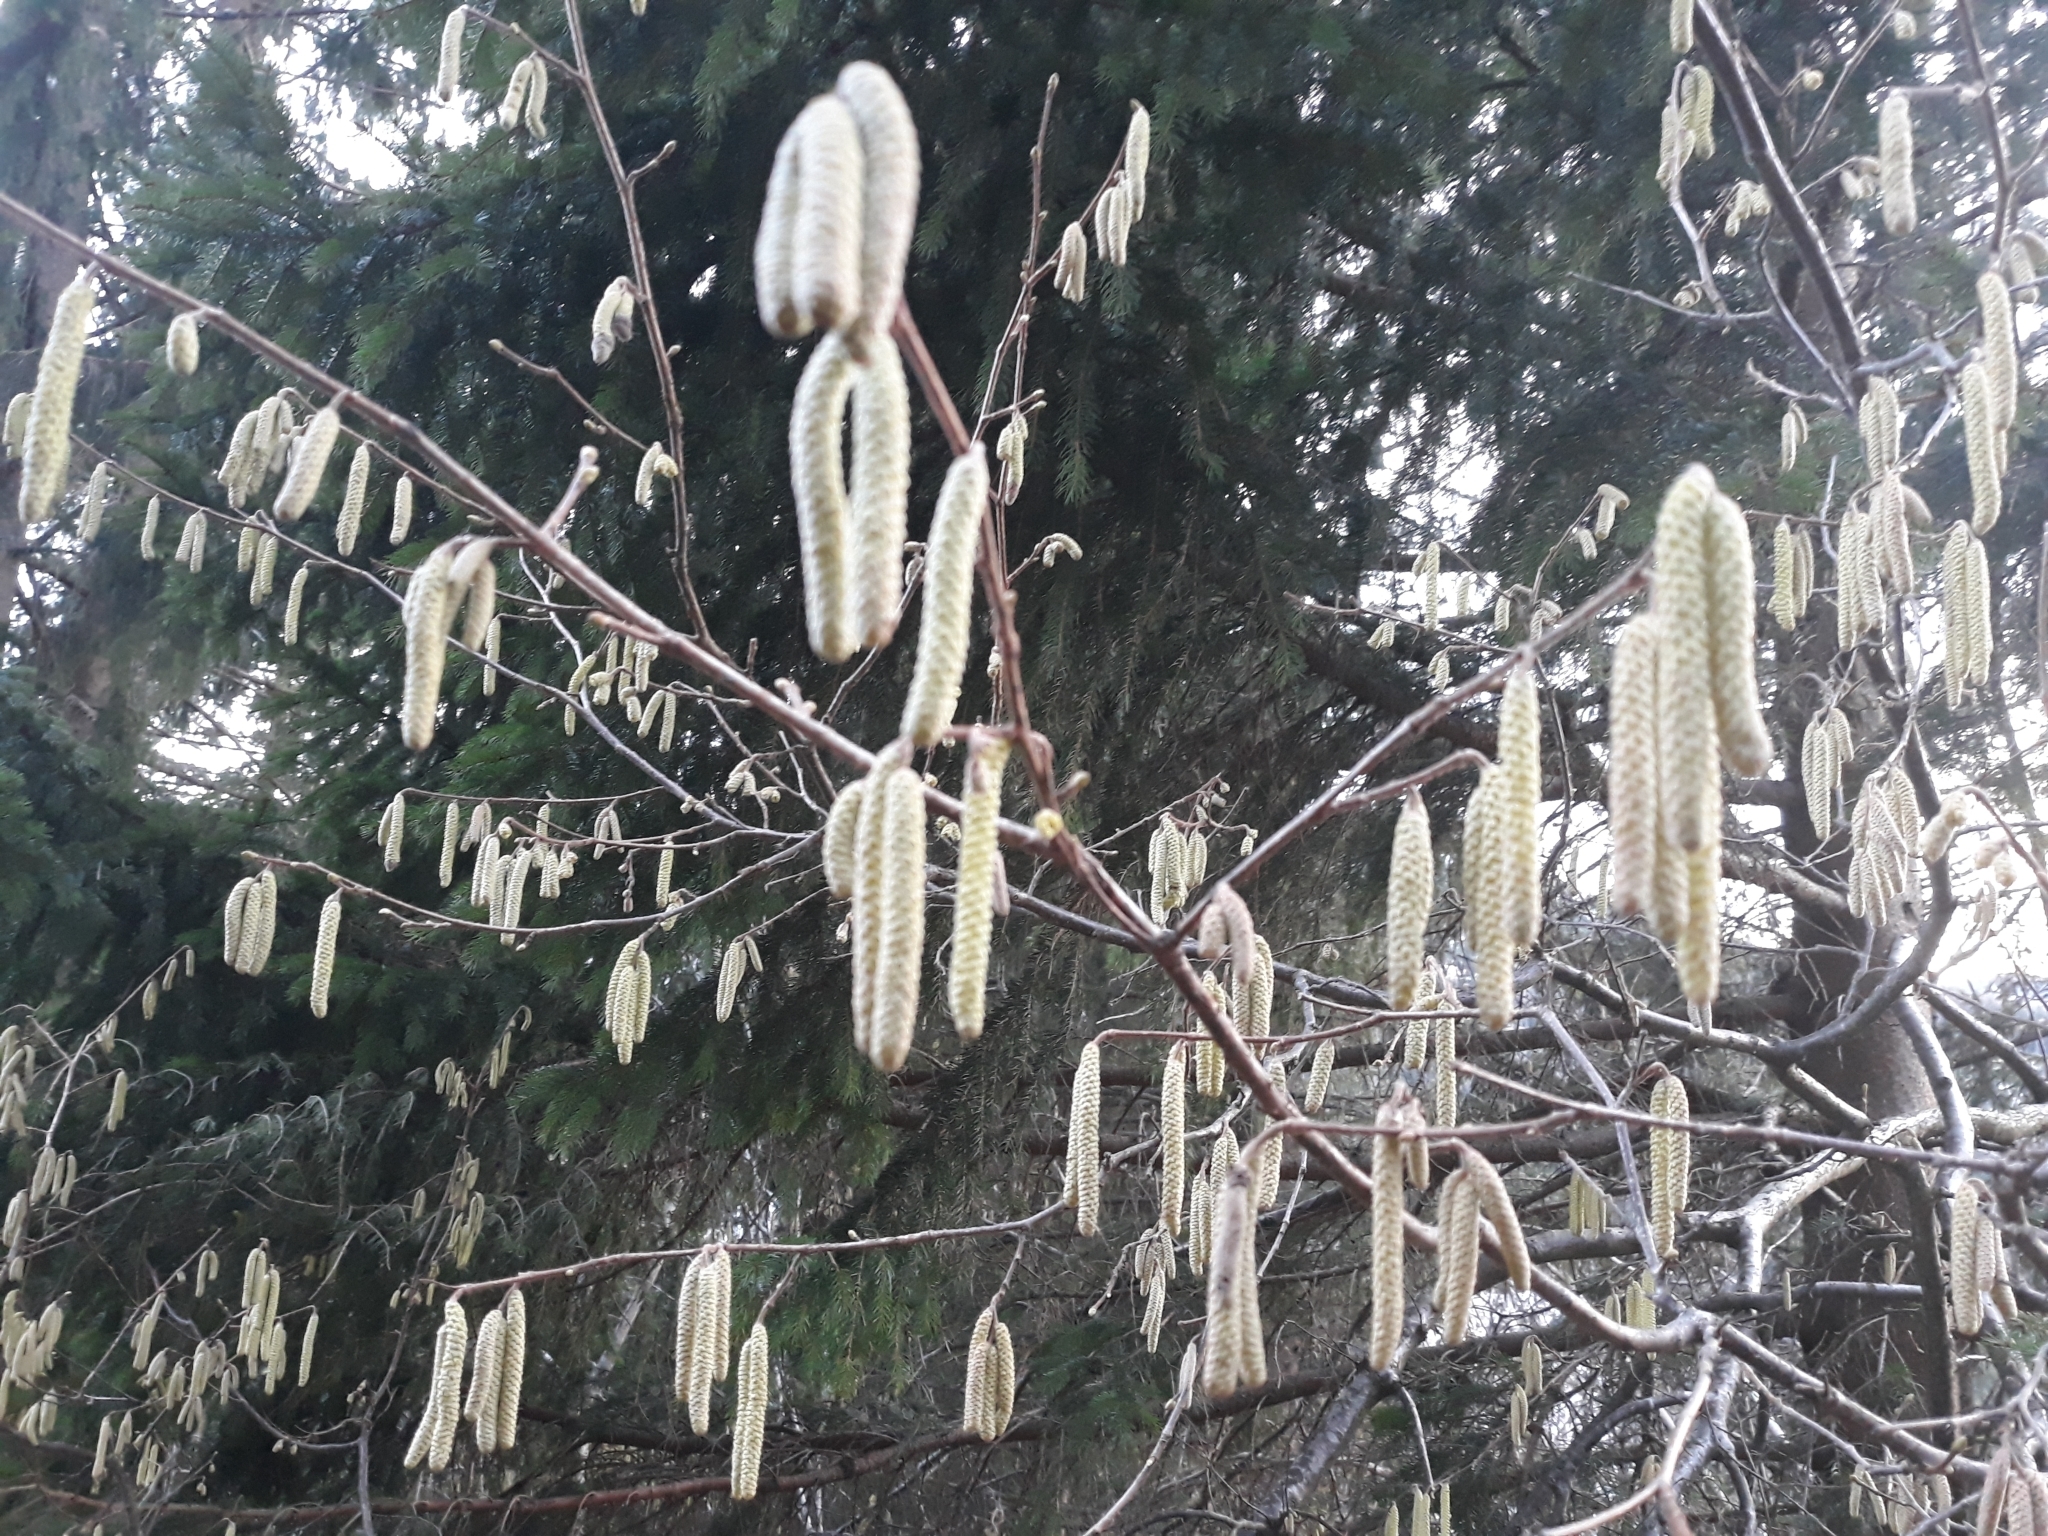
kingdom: Plantae
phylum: Tracheophyta
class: Magnoliopsida
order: Fagales
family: Betulaceae
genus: Corylus
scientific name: Corylus avellana
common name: European hazel
